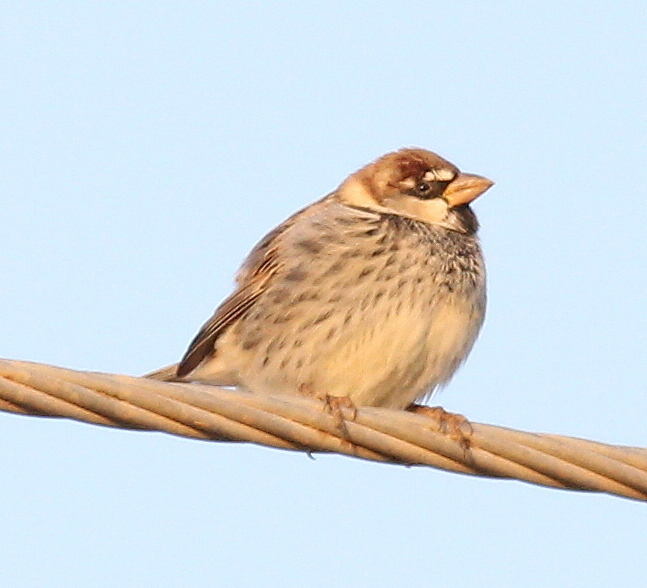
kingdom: Animalia
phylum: Chordata
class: Aves
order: Passeriformes
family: Passeridae
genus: Passer
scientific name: Passer hispaniolensis
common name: Spanish sparrow
